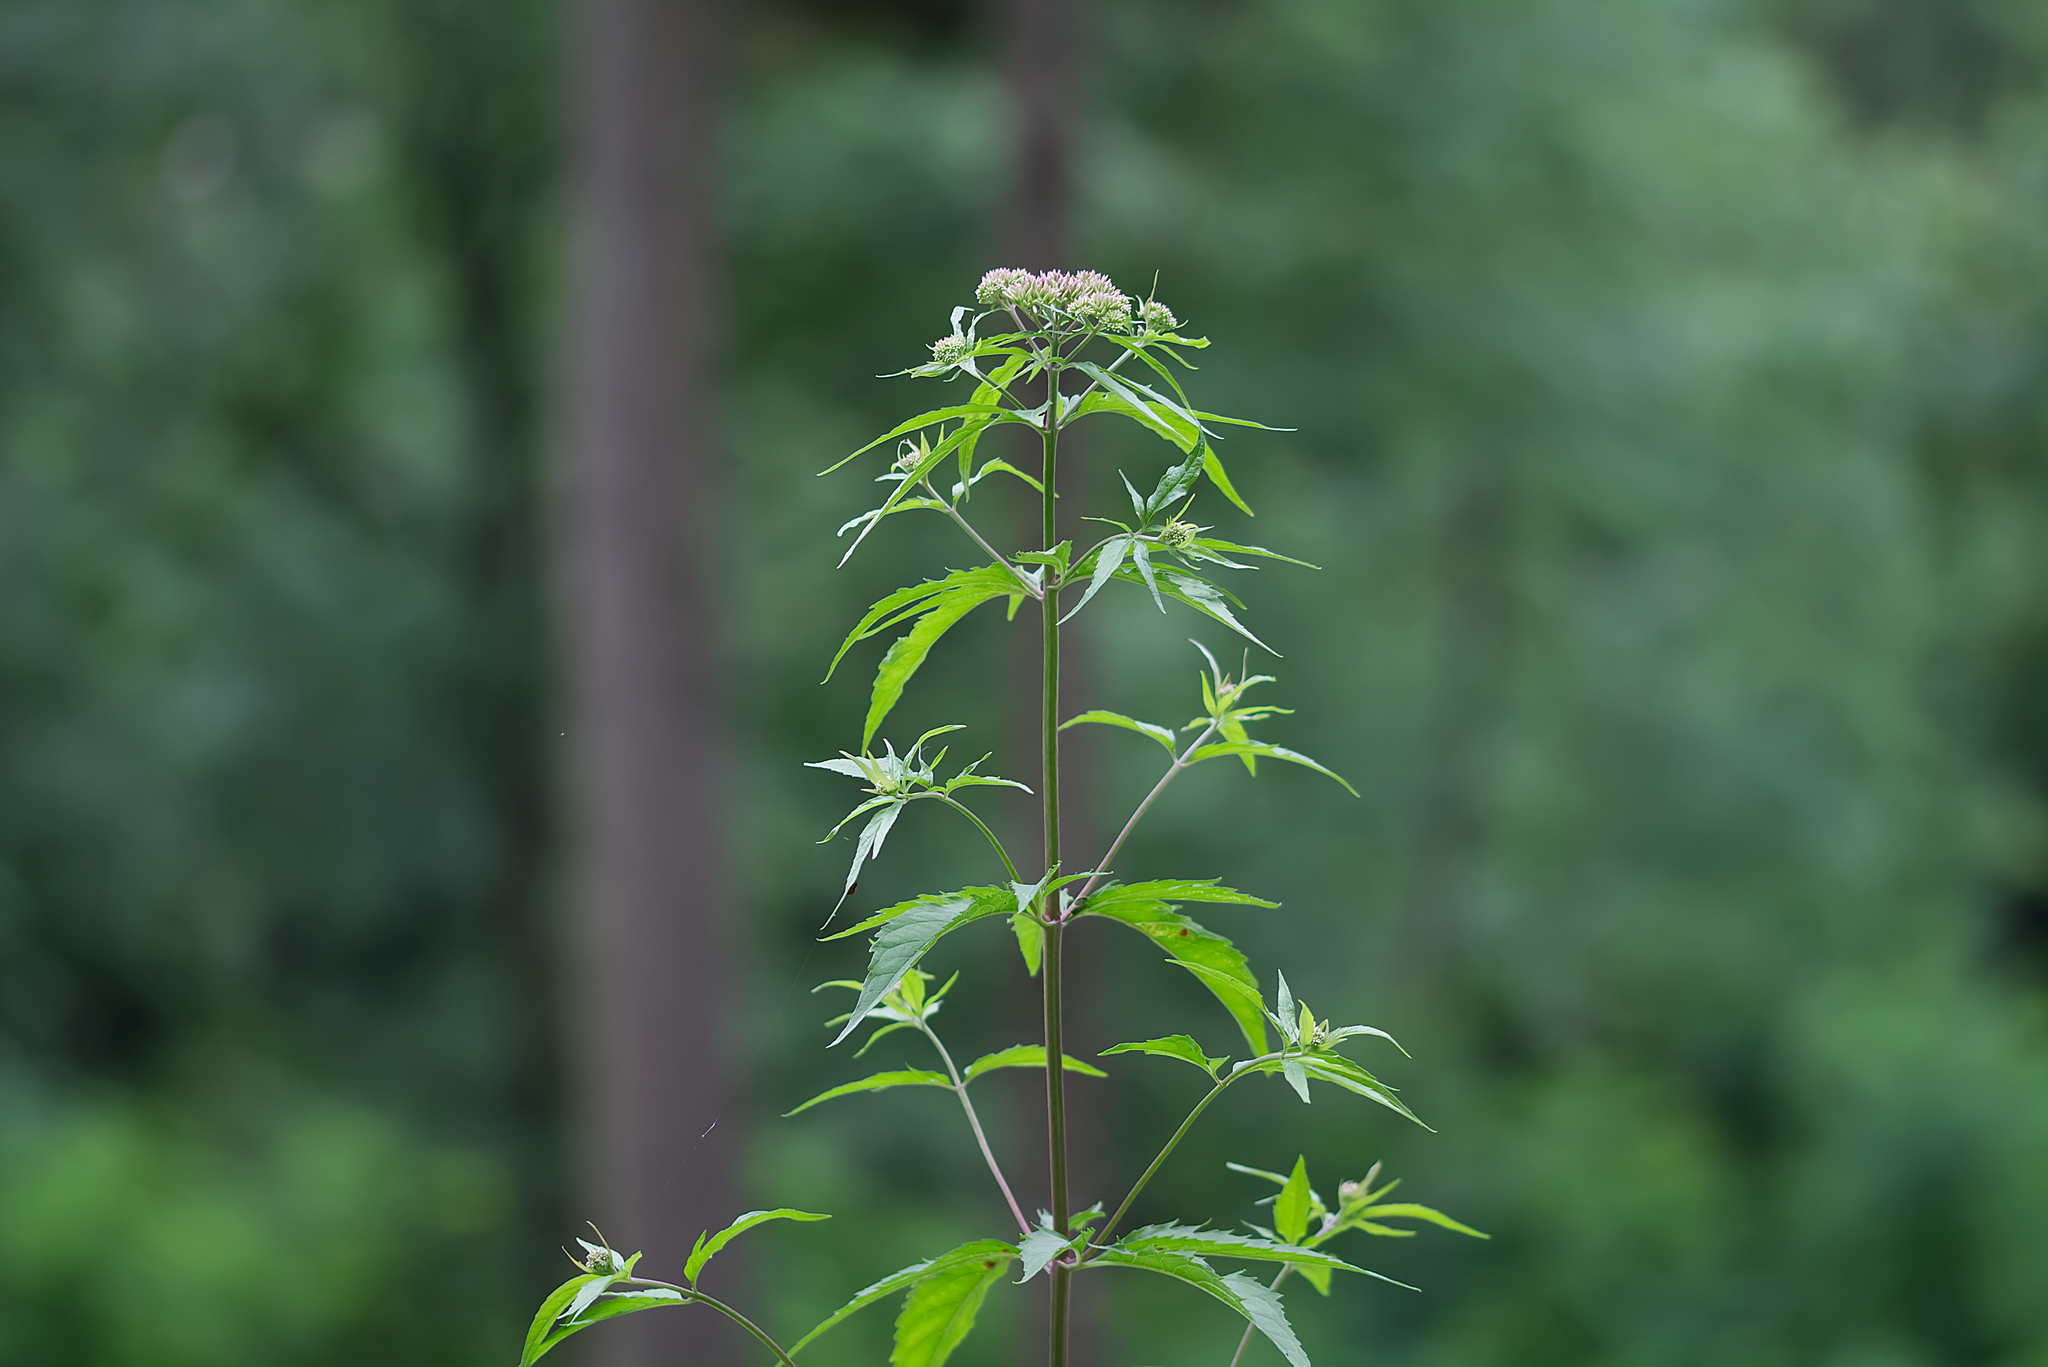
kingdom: Plantae
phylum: Tracheophyta
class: Magnoliopsida
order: Asterales
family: Asteraceae
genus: Eupatorium
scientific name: Eupatorium cannabinum
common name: Hemp-agrimony
